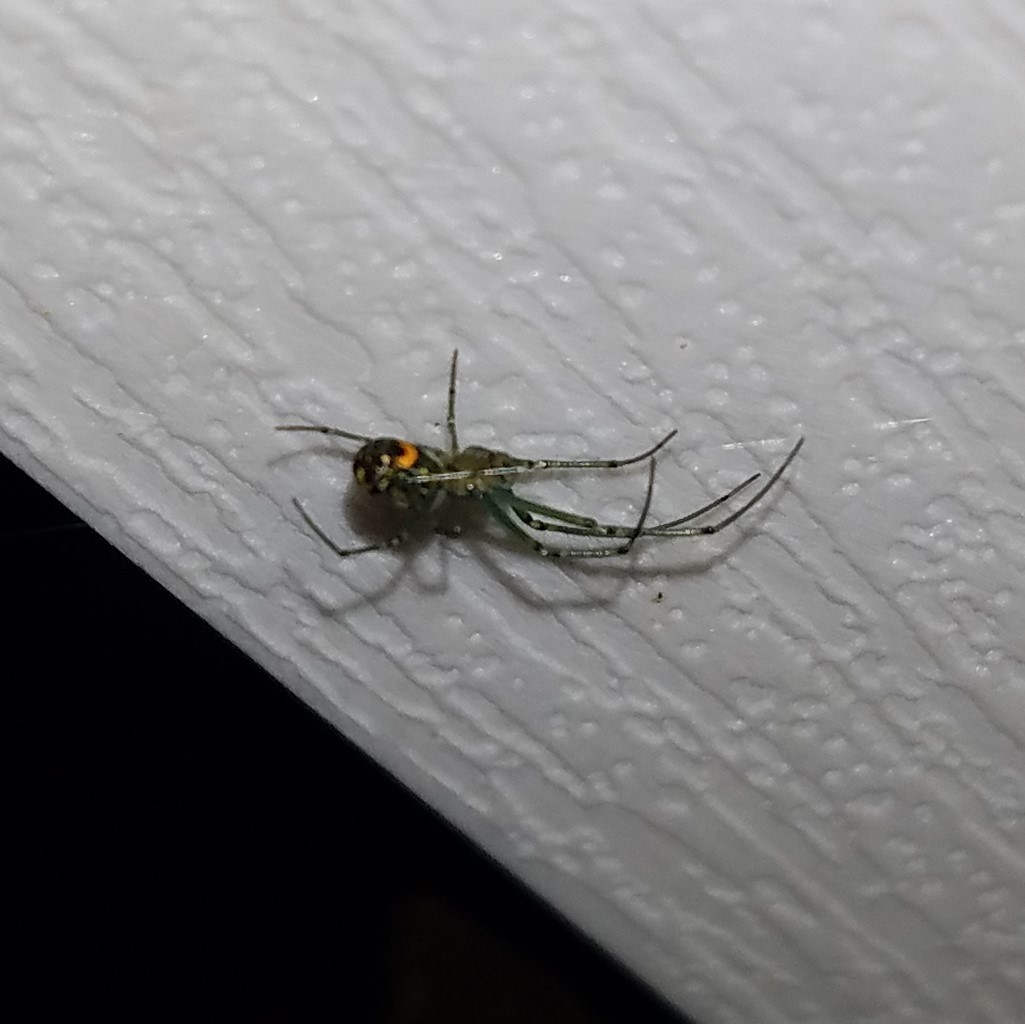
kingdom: Animalia
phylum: Arthropoda
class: Arachnida
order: Araneae
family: Tetragnathidae
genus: Leucauge
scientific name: Leucauge venusta
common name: Longjawed orb weavers
